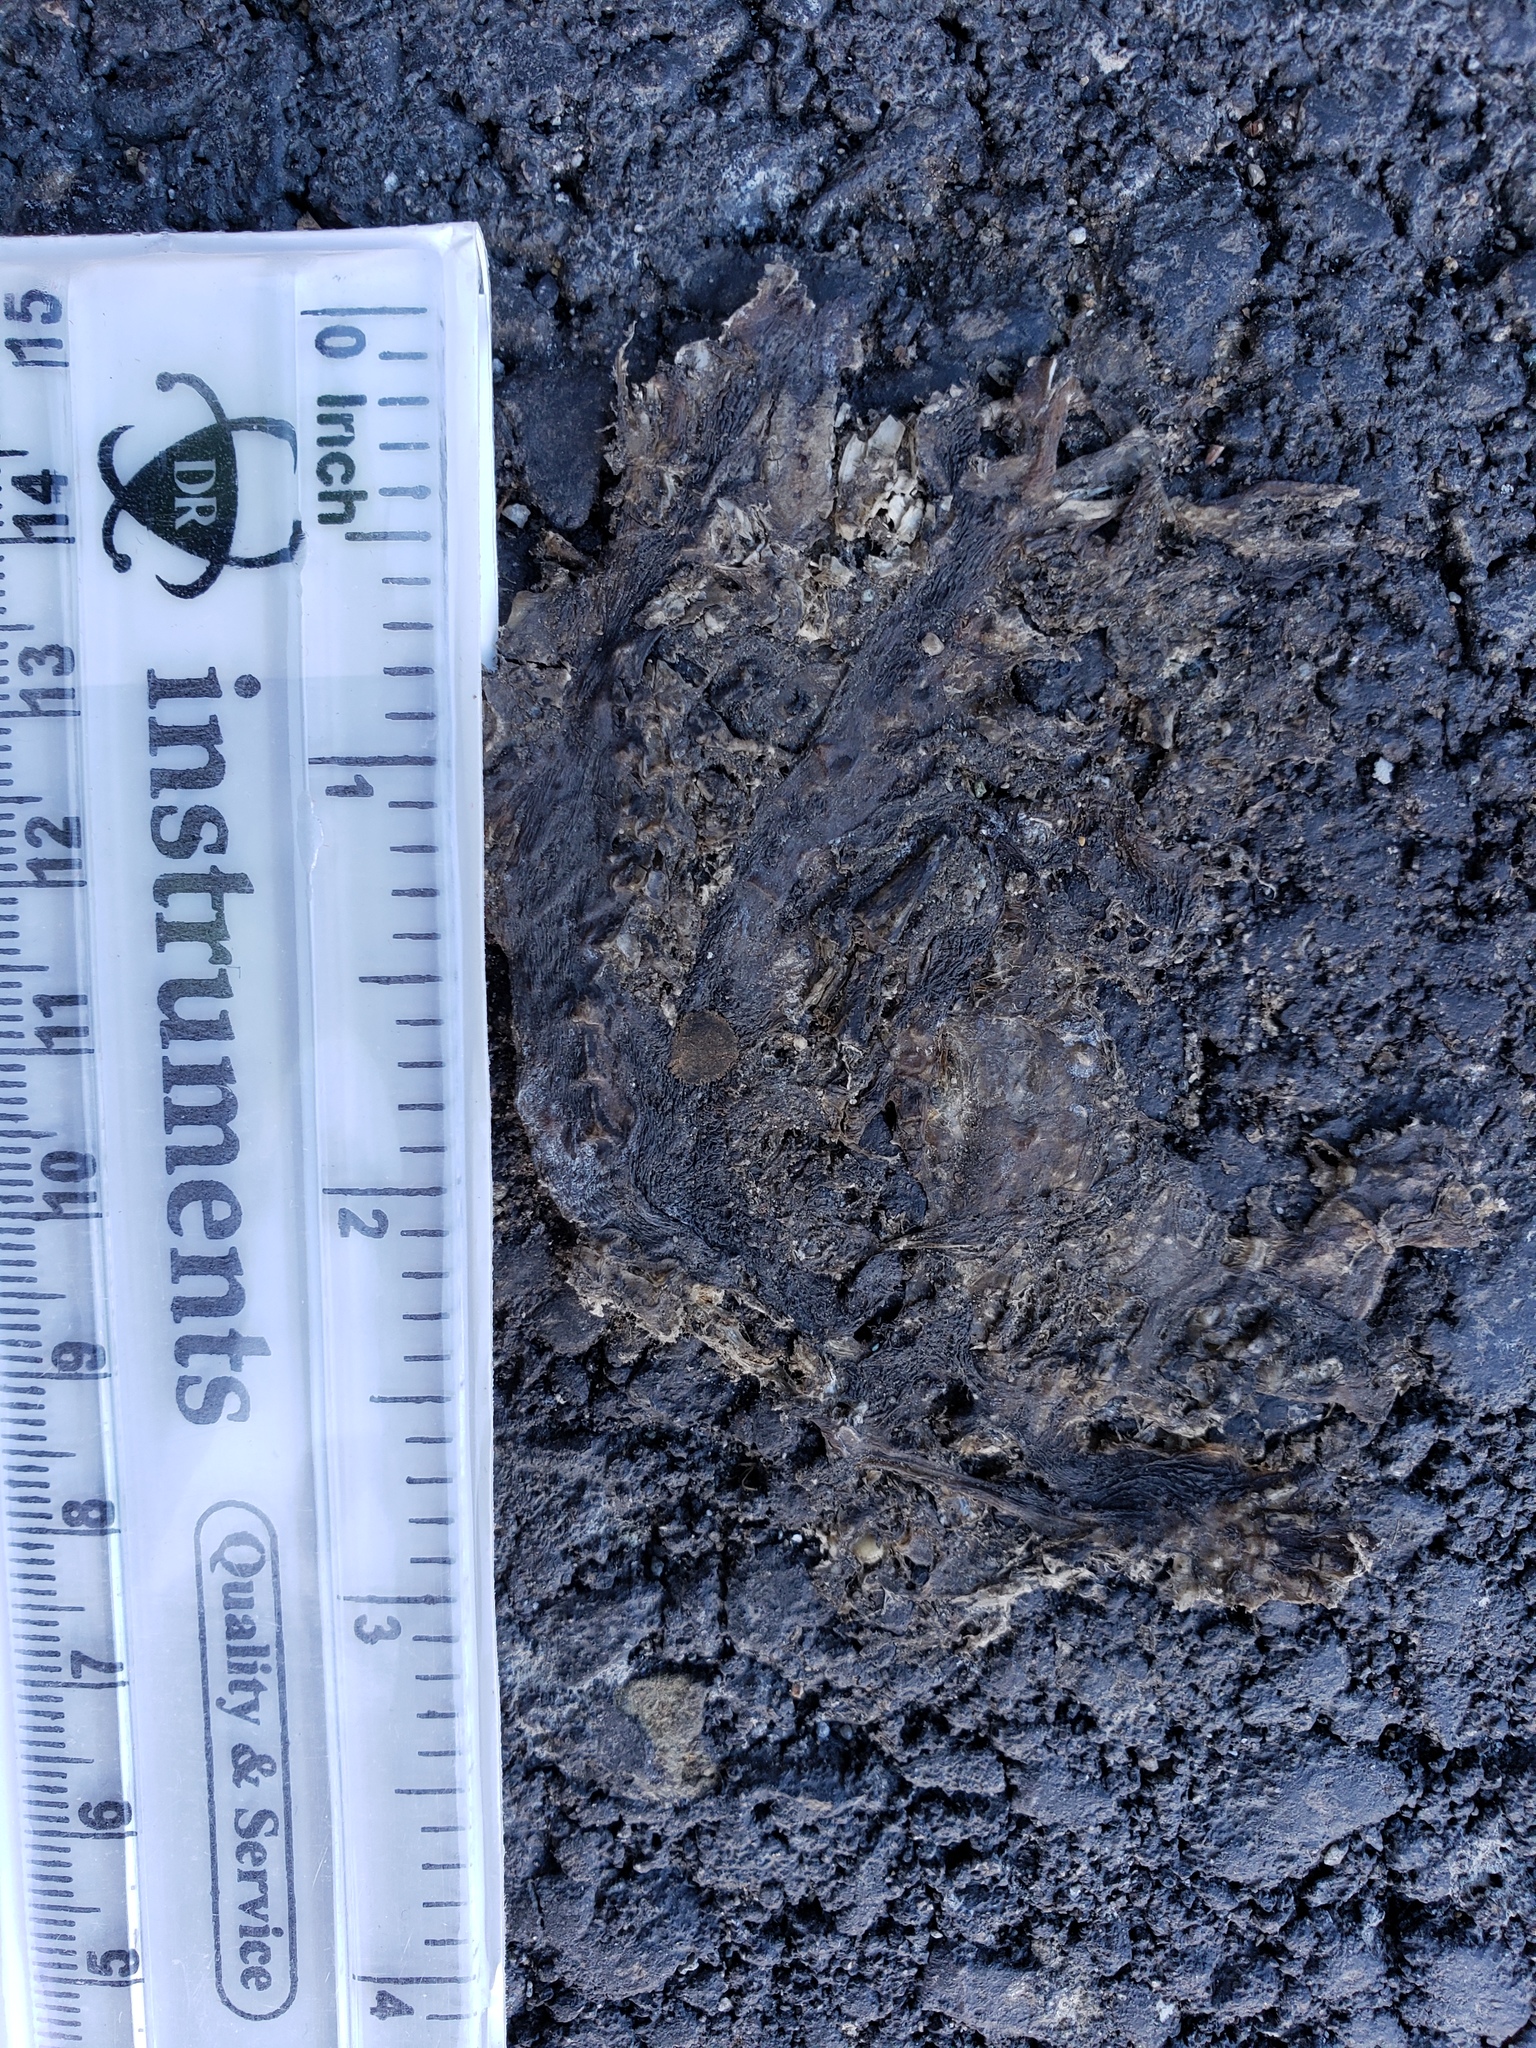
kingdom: Animalia
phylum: Chordata
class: Amphibia
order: Caudata
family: Salamandridae
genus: Taricha
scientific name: Taricha
